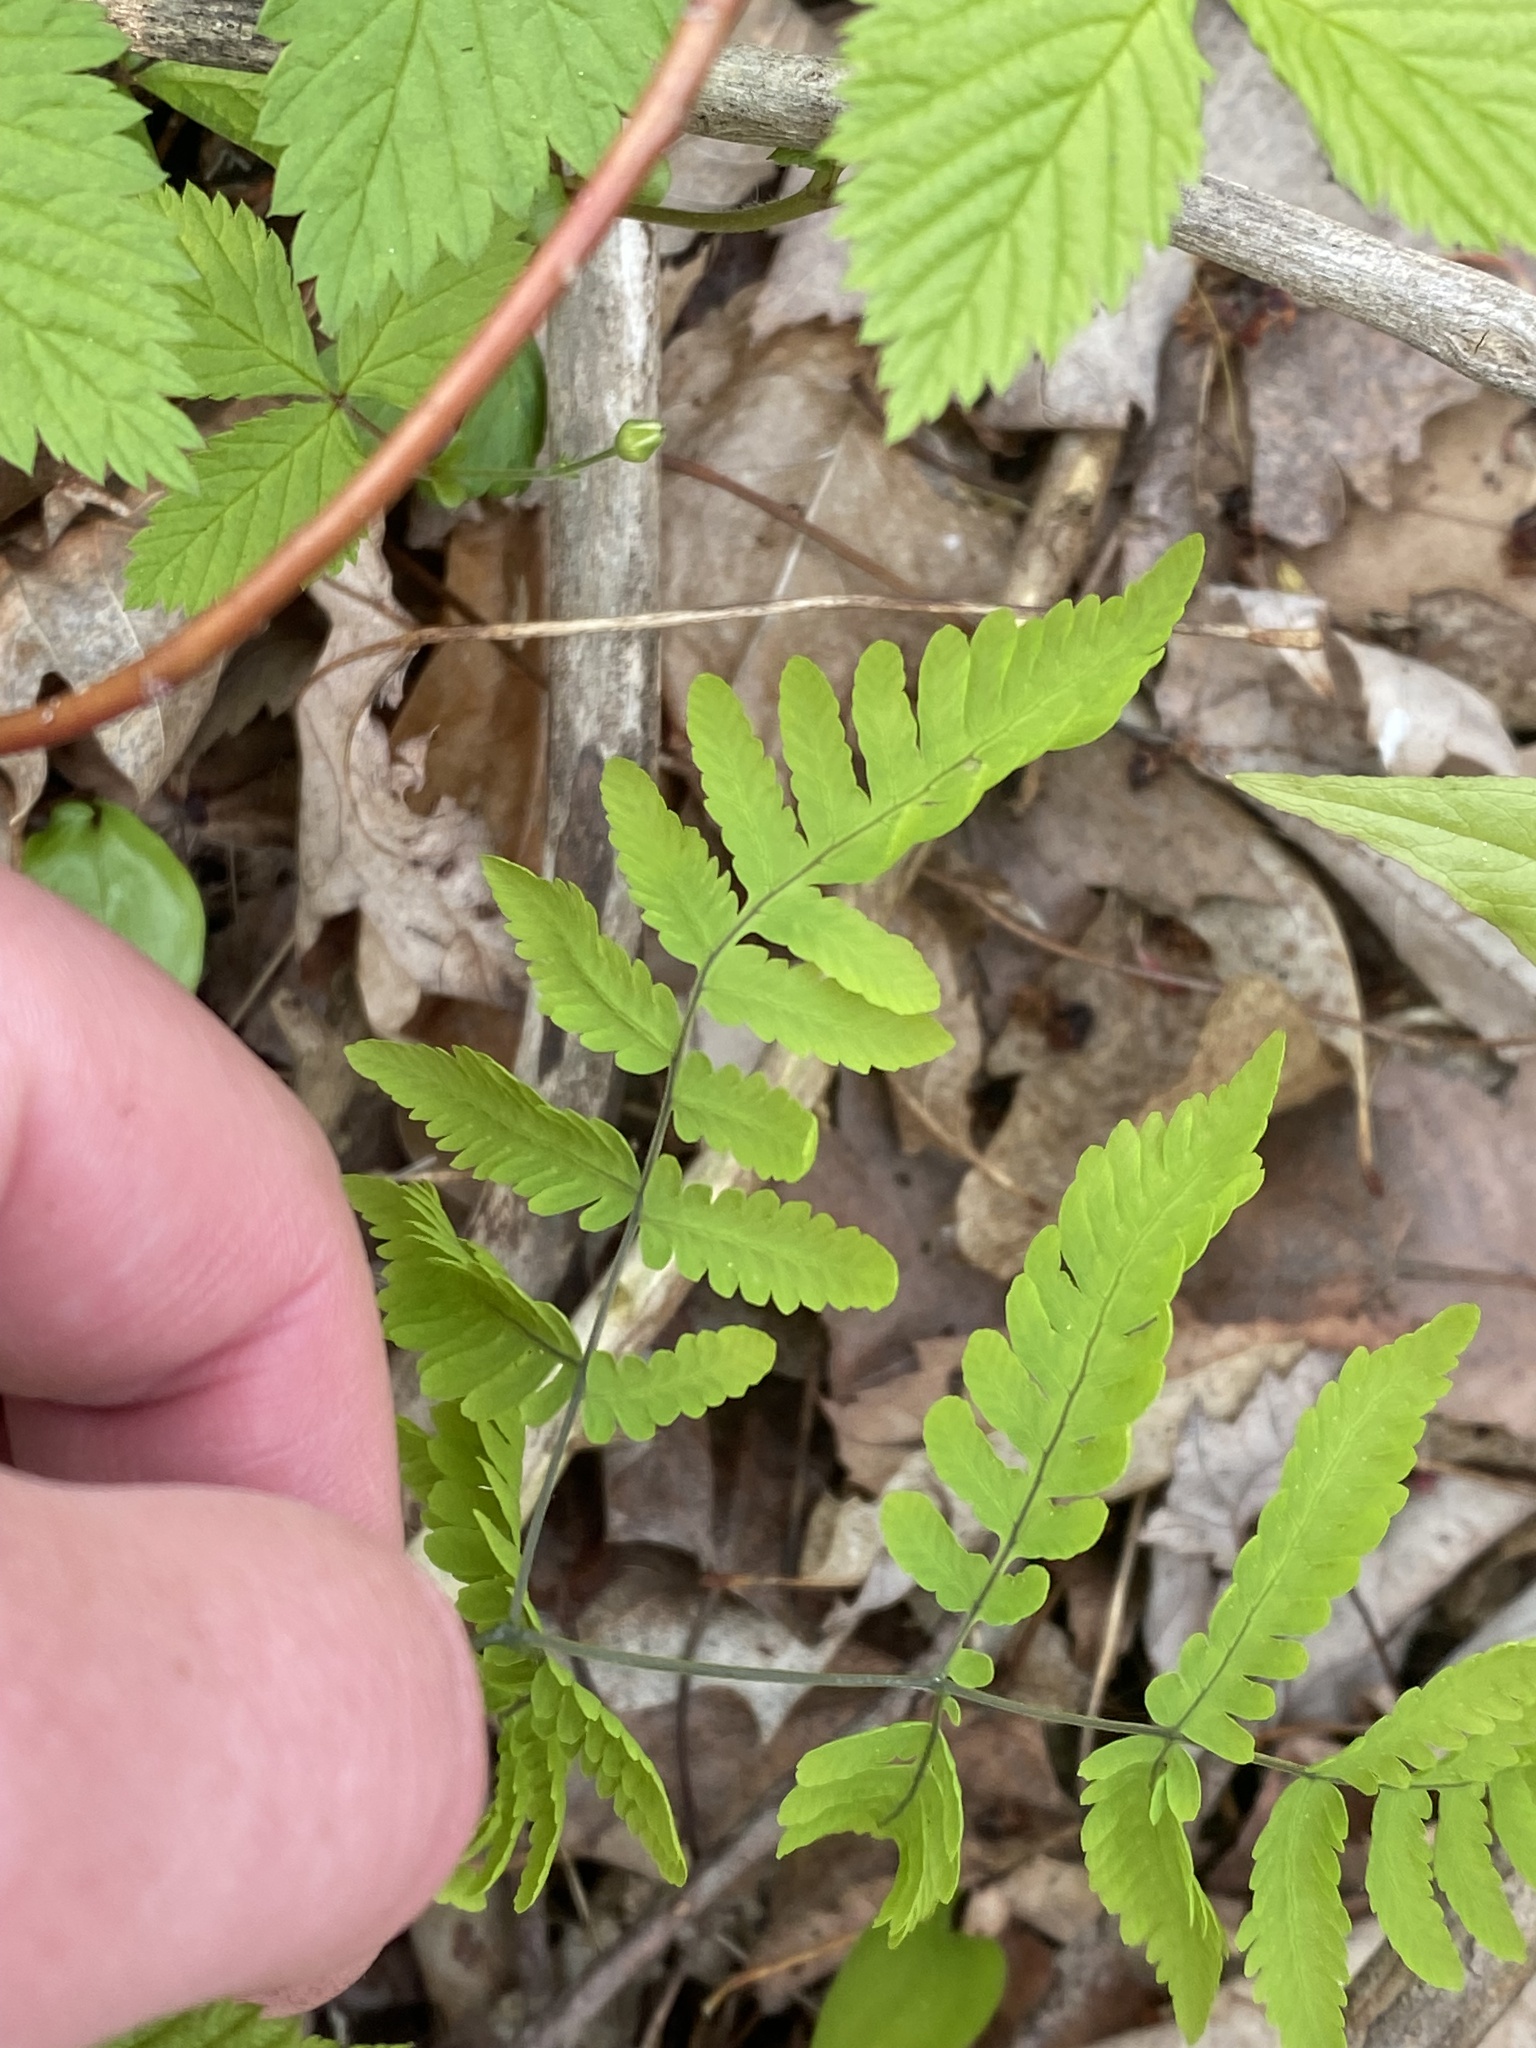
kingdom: Plantae
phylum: Tracheophyta
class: Polypodiopsida
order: Polypodiales
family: Cystopteridaceae
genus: Gymnocarpium
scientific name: Gymnocarpium dryopteris
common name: Oak fern
